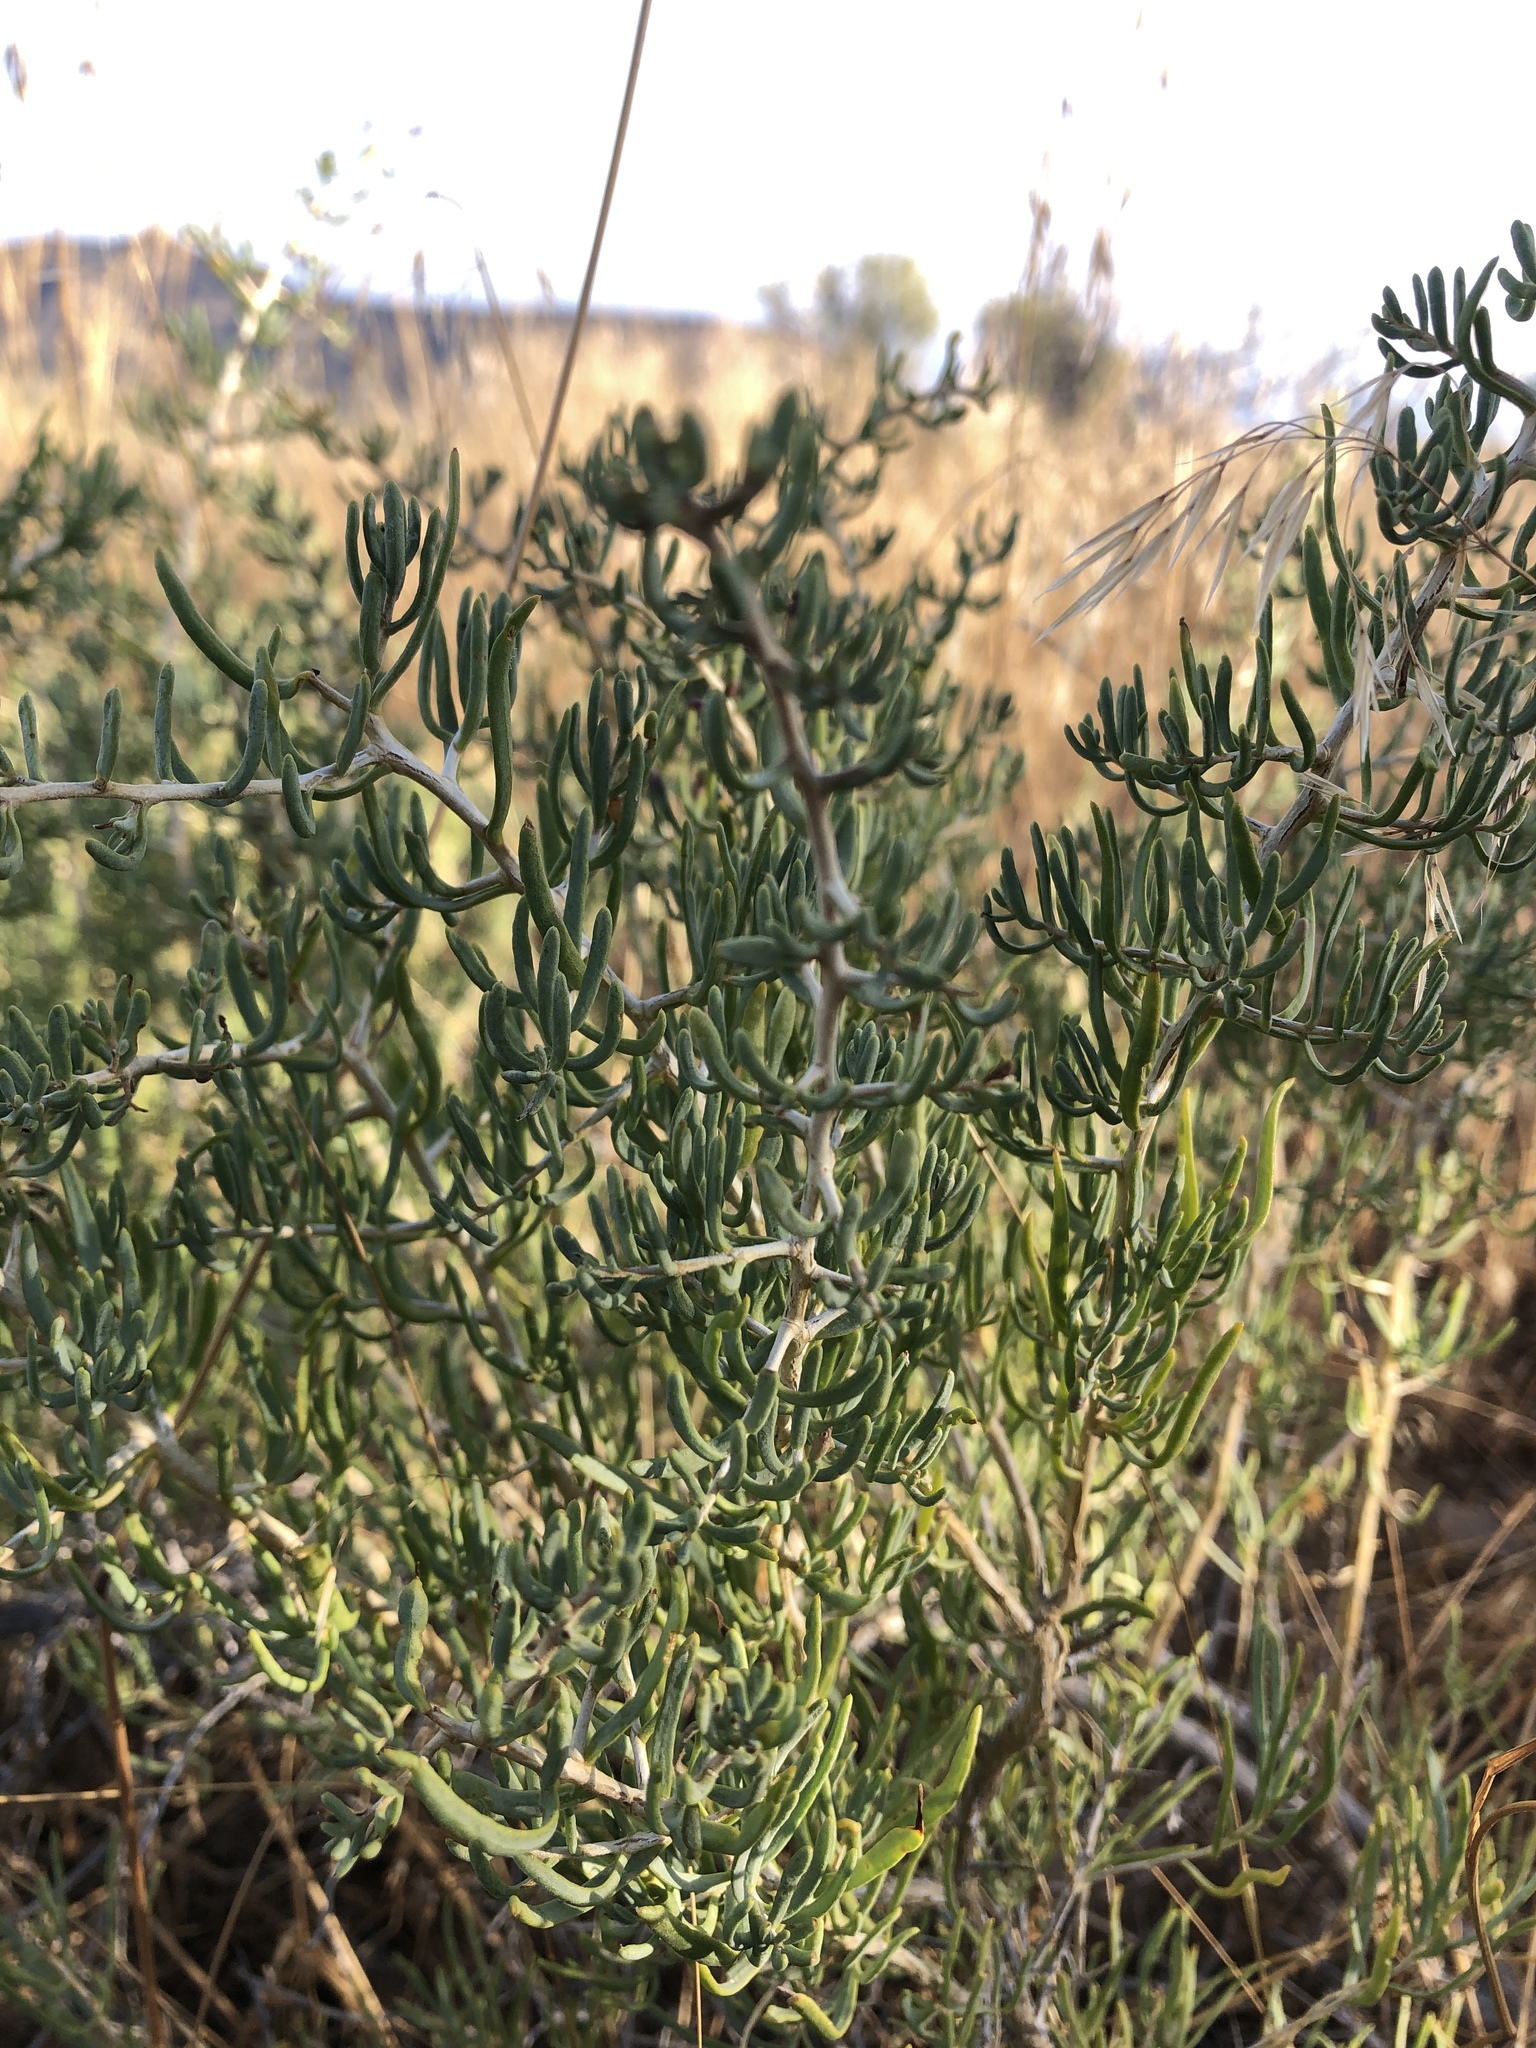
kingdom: Plantae
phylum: Tracheophyta
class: Magnoliopsida
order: Caryophyllales
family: Sarcobataceae
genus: Sarcobatus
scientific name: Sarcobatus vermiculatus
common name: Greasewood
